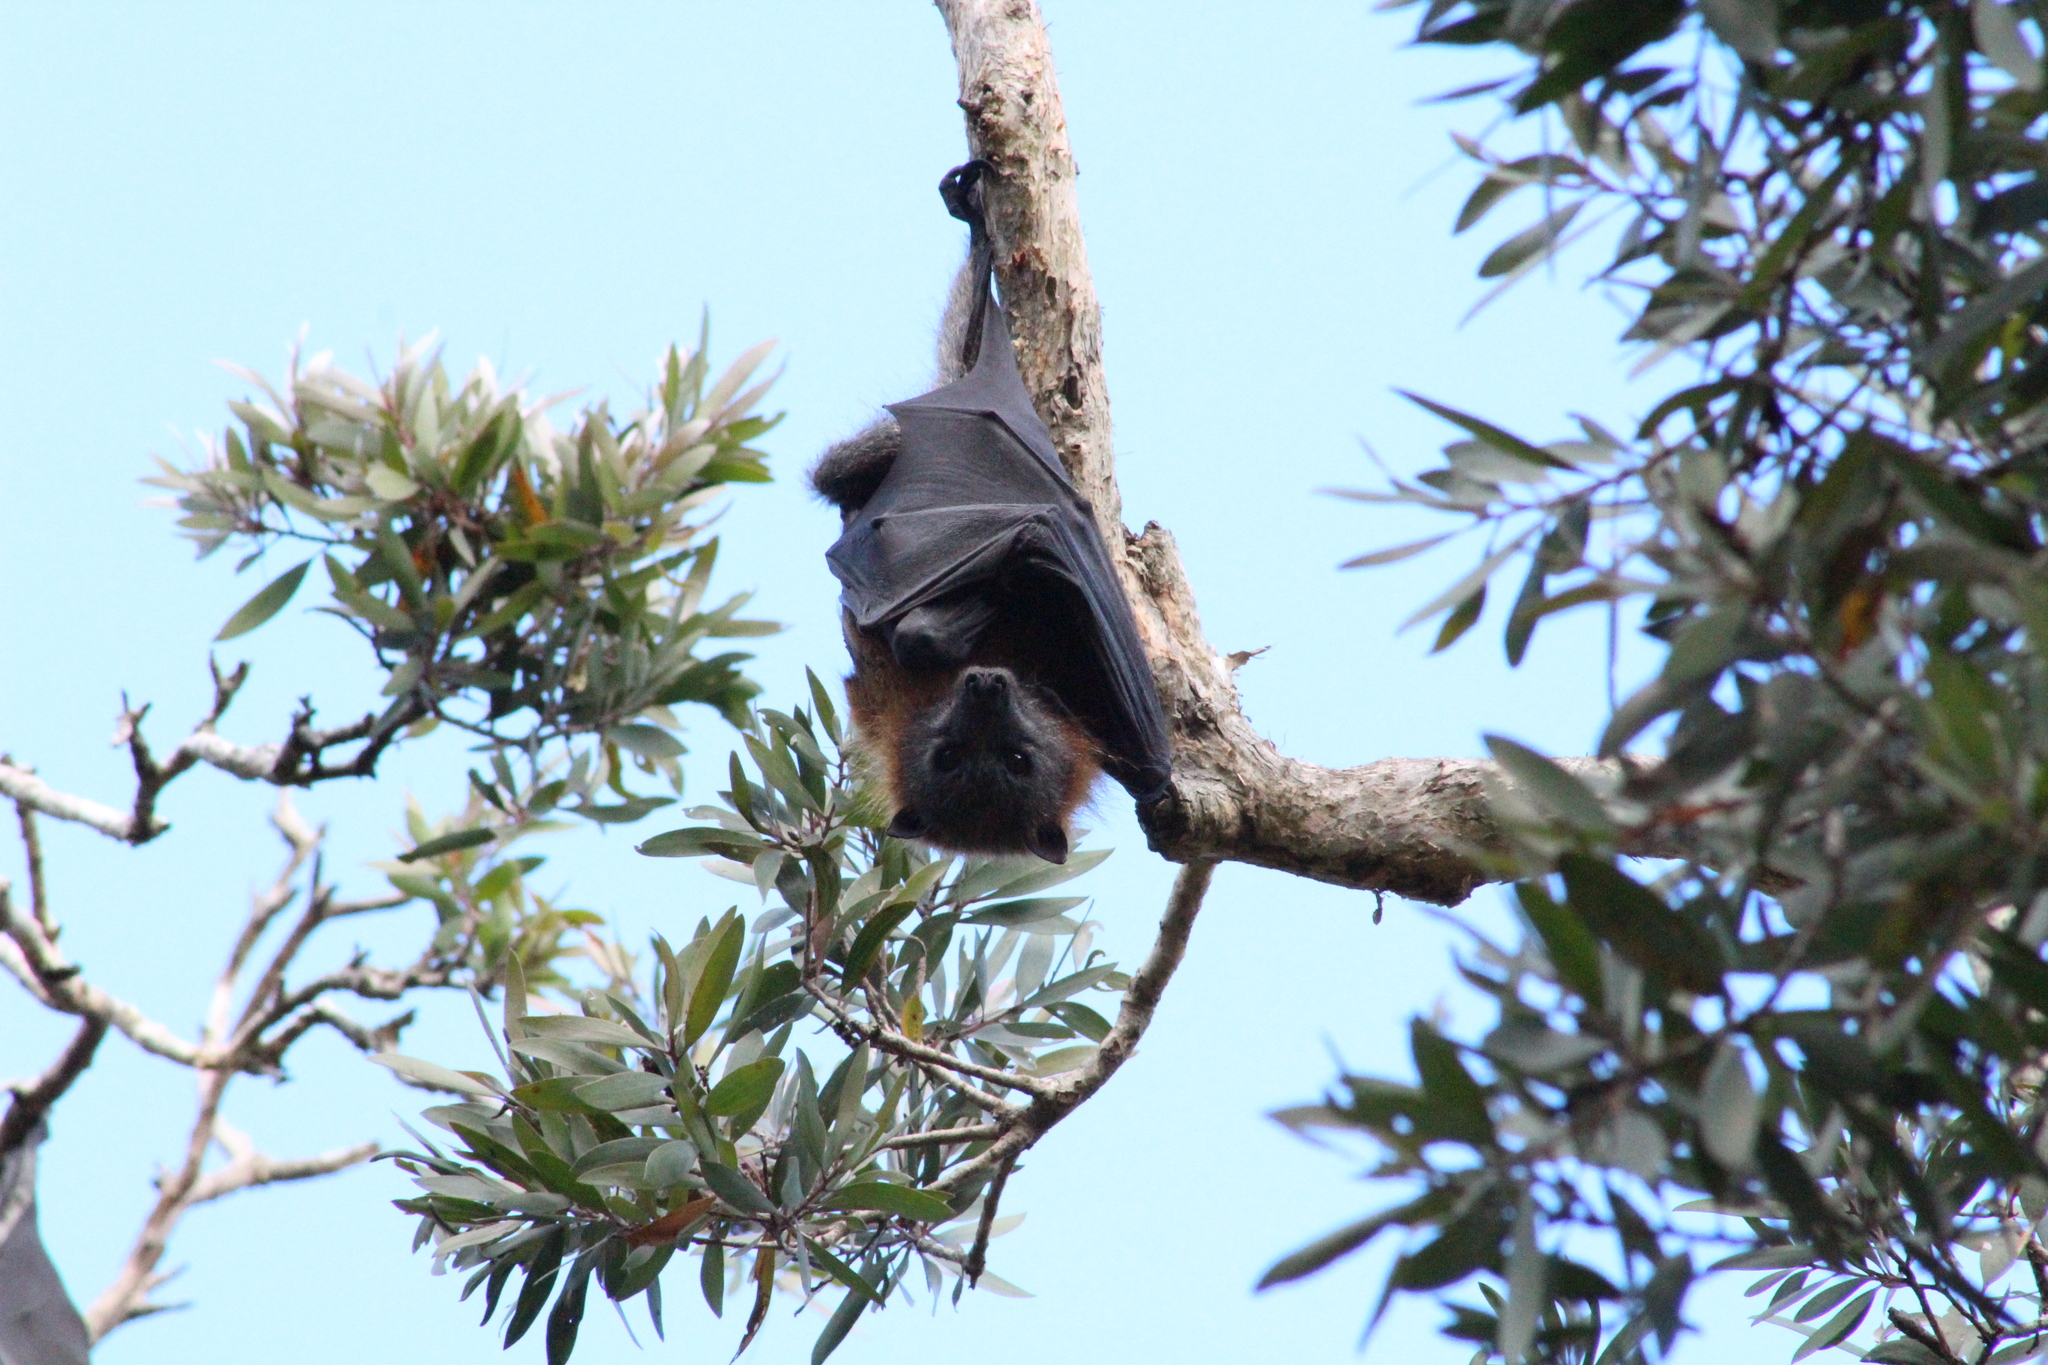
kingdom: Animalia
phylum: Chordata
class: Mammalia
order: Chiroptera
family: Pteropodidae
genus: Pteropus
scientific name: Pteropus poliocephalus
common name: Gray-headed flying fox
